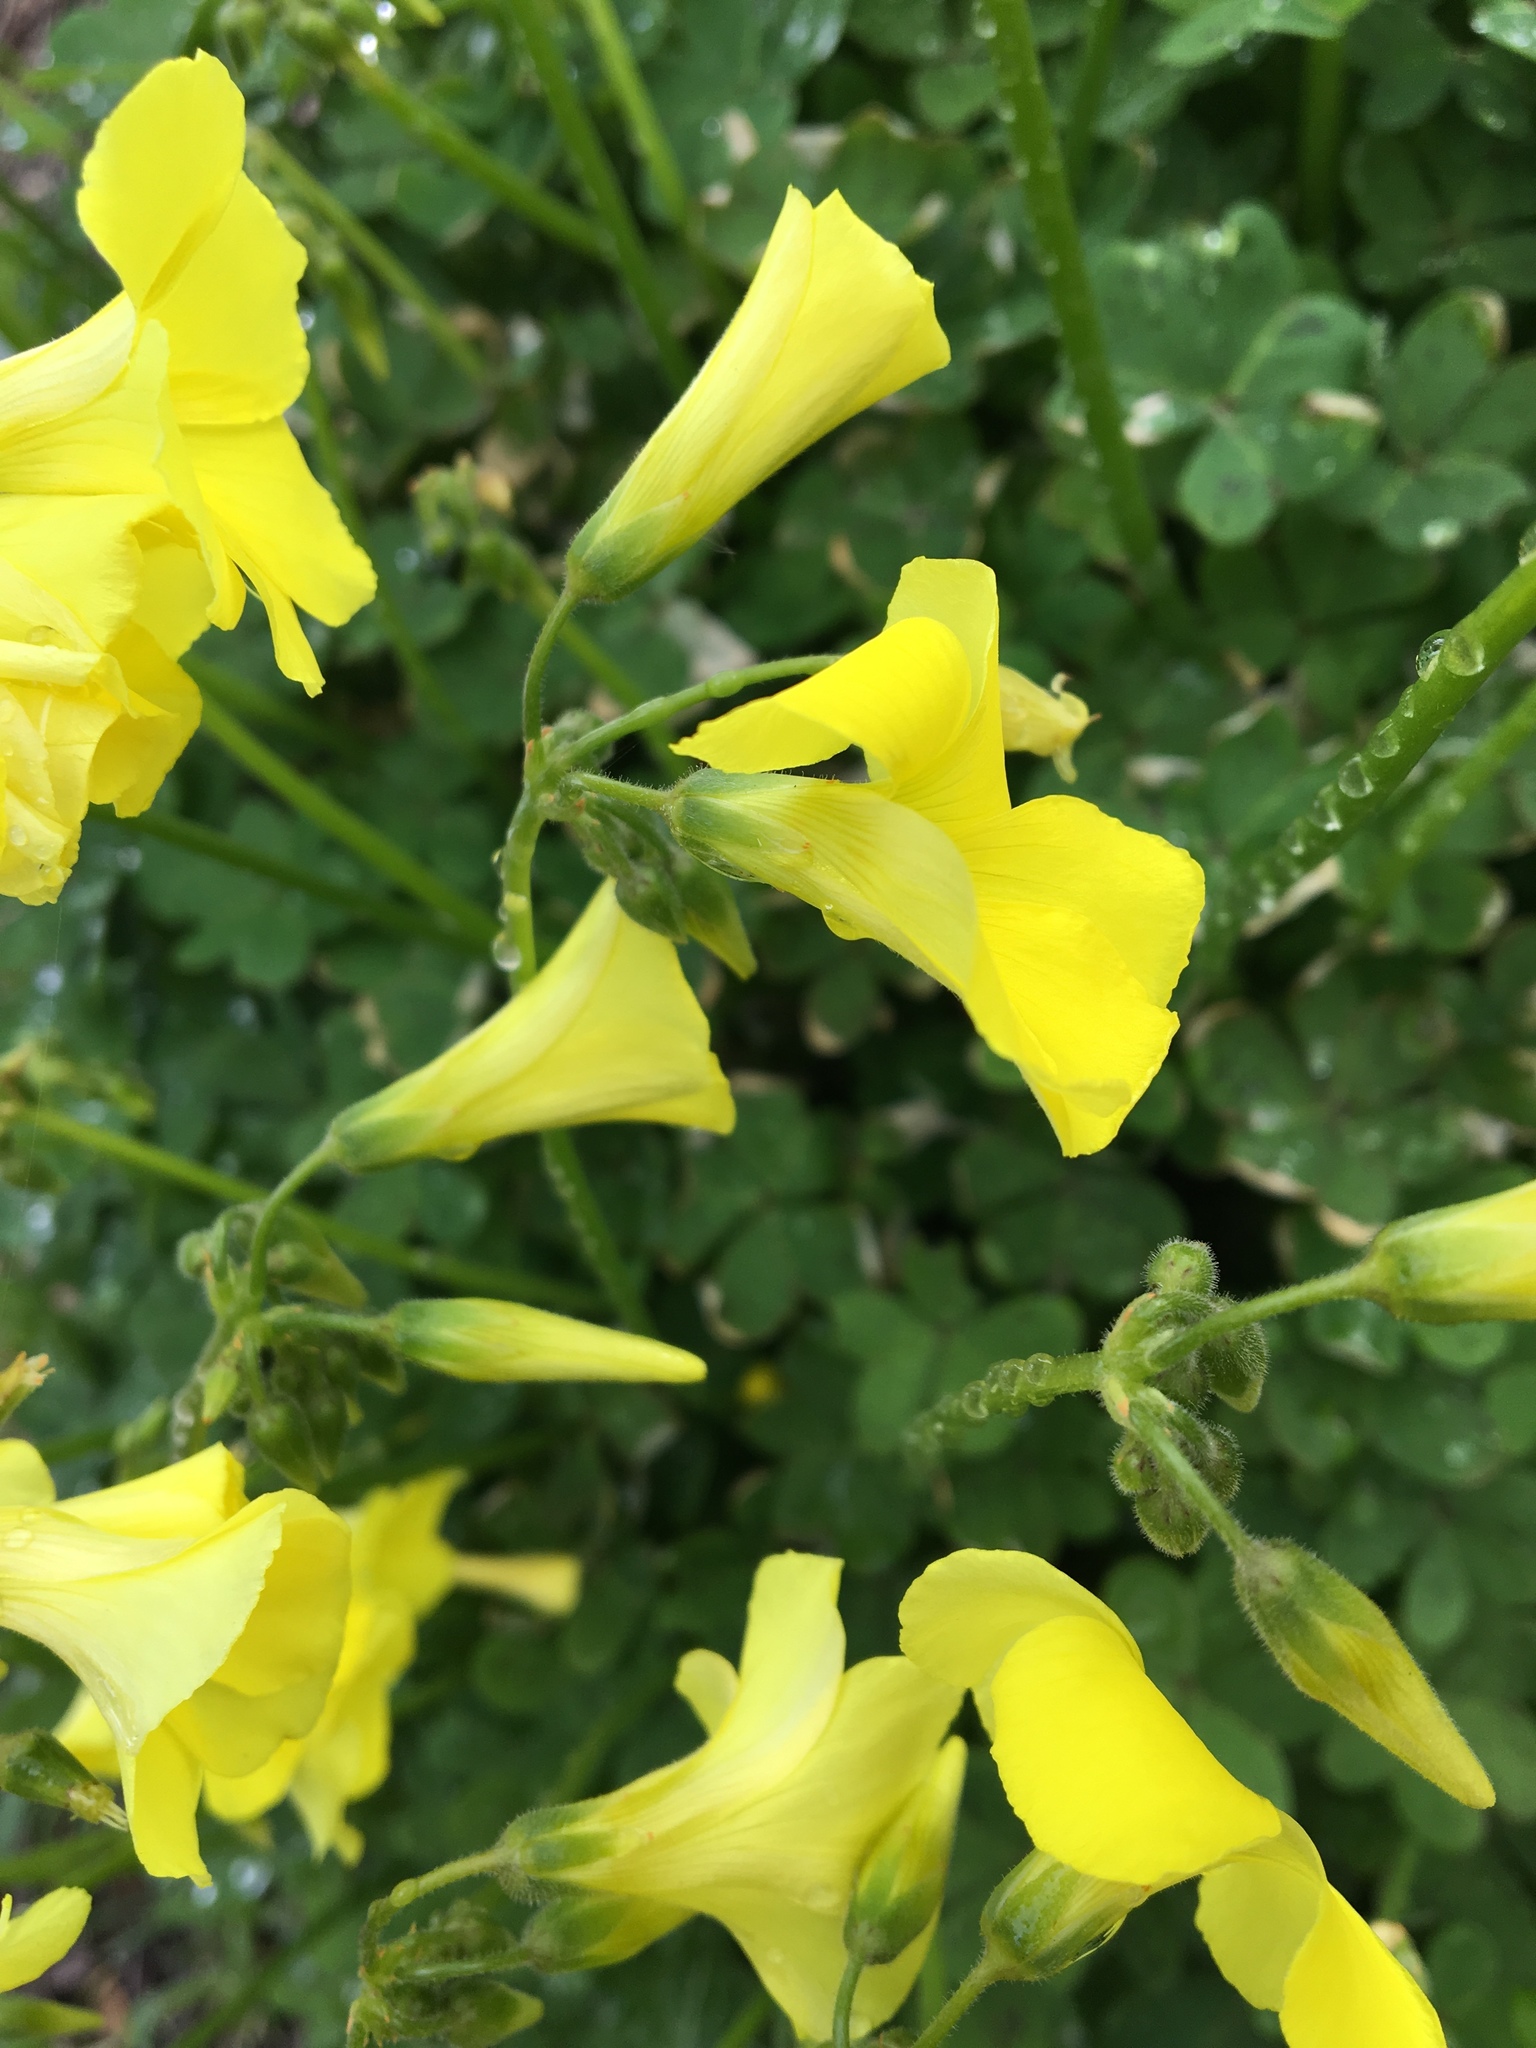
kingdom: Plantae
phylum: Tracheophyta
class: Magnoliopsida
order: Oxalidales
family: Oxalidaceae
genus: Oxalis
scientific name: Oxalis pes-caprae
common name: Bermuda-buttercup
